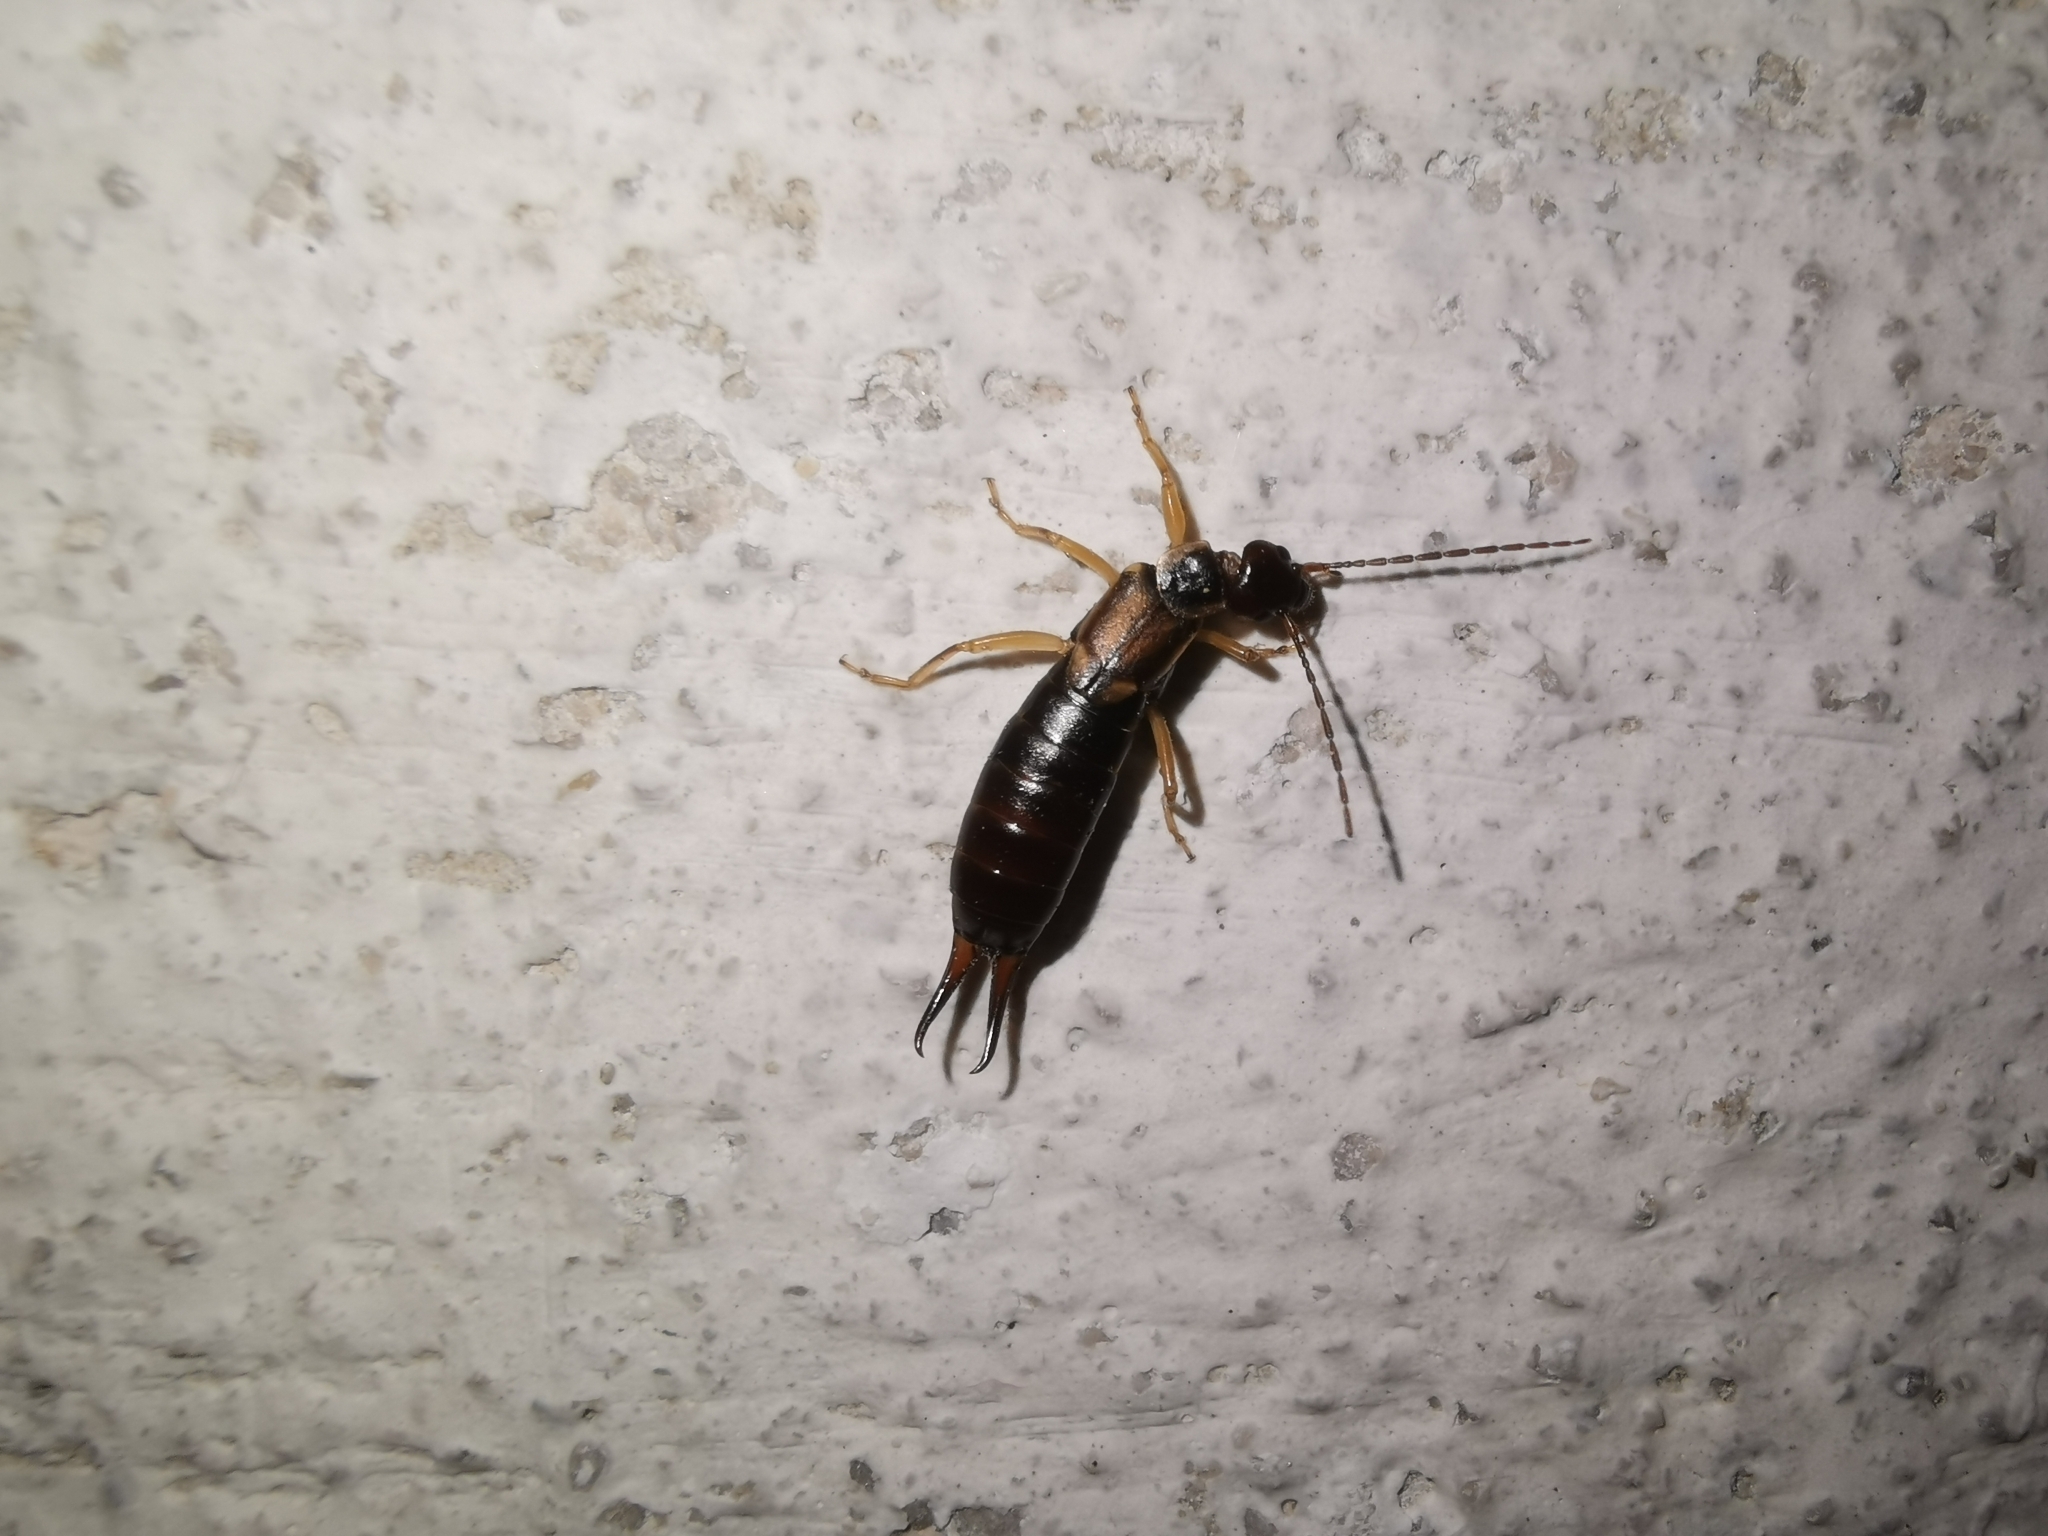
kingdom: Animalia
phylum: Arthropoda
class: Insecta
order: Dermaptera
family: Forficulidae
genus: Forficula
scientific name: Forficula
